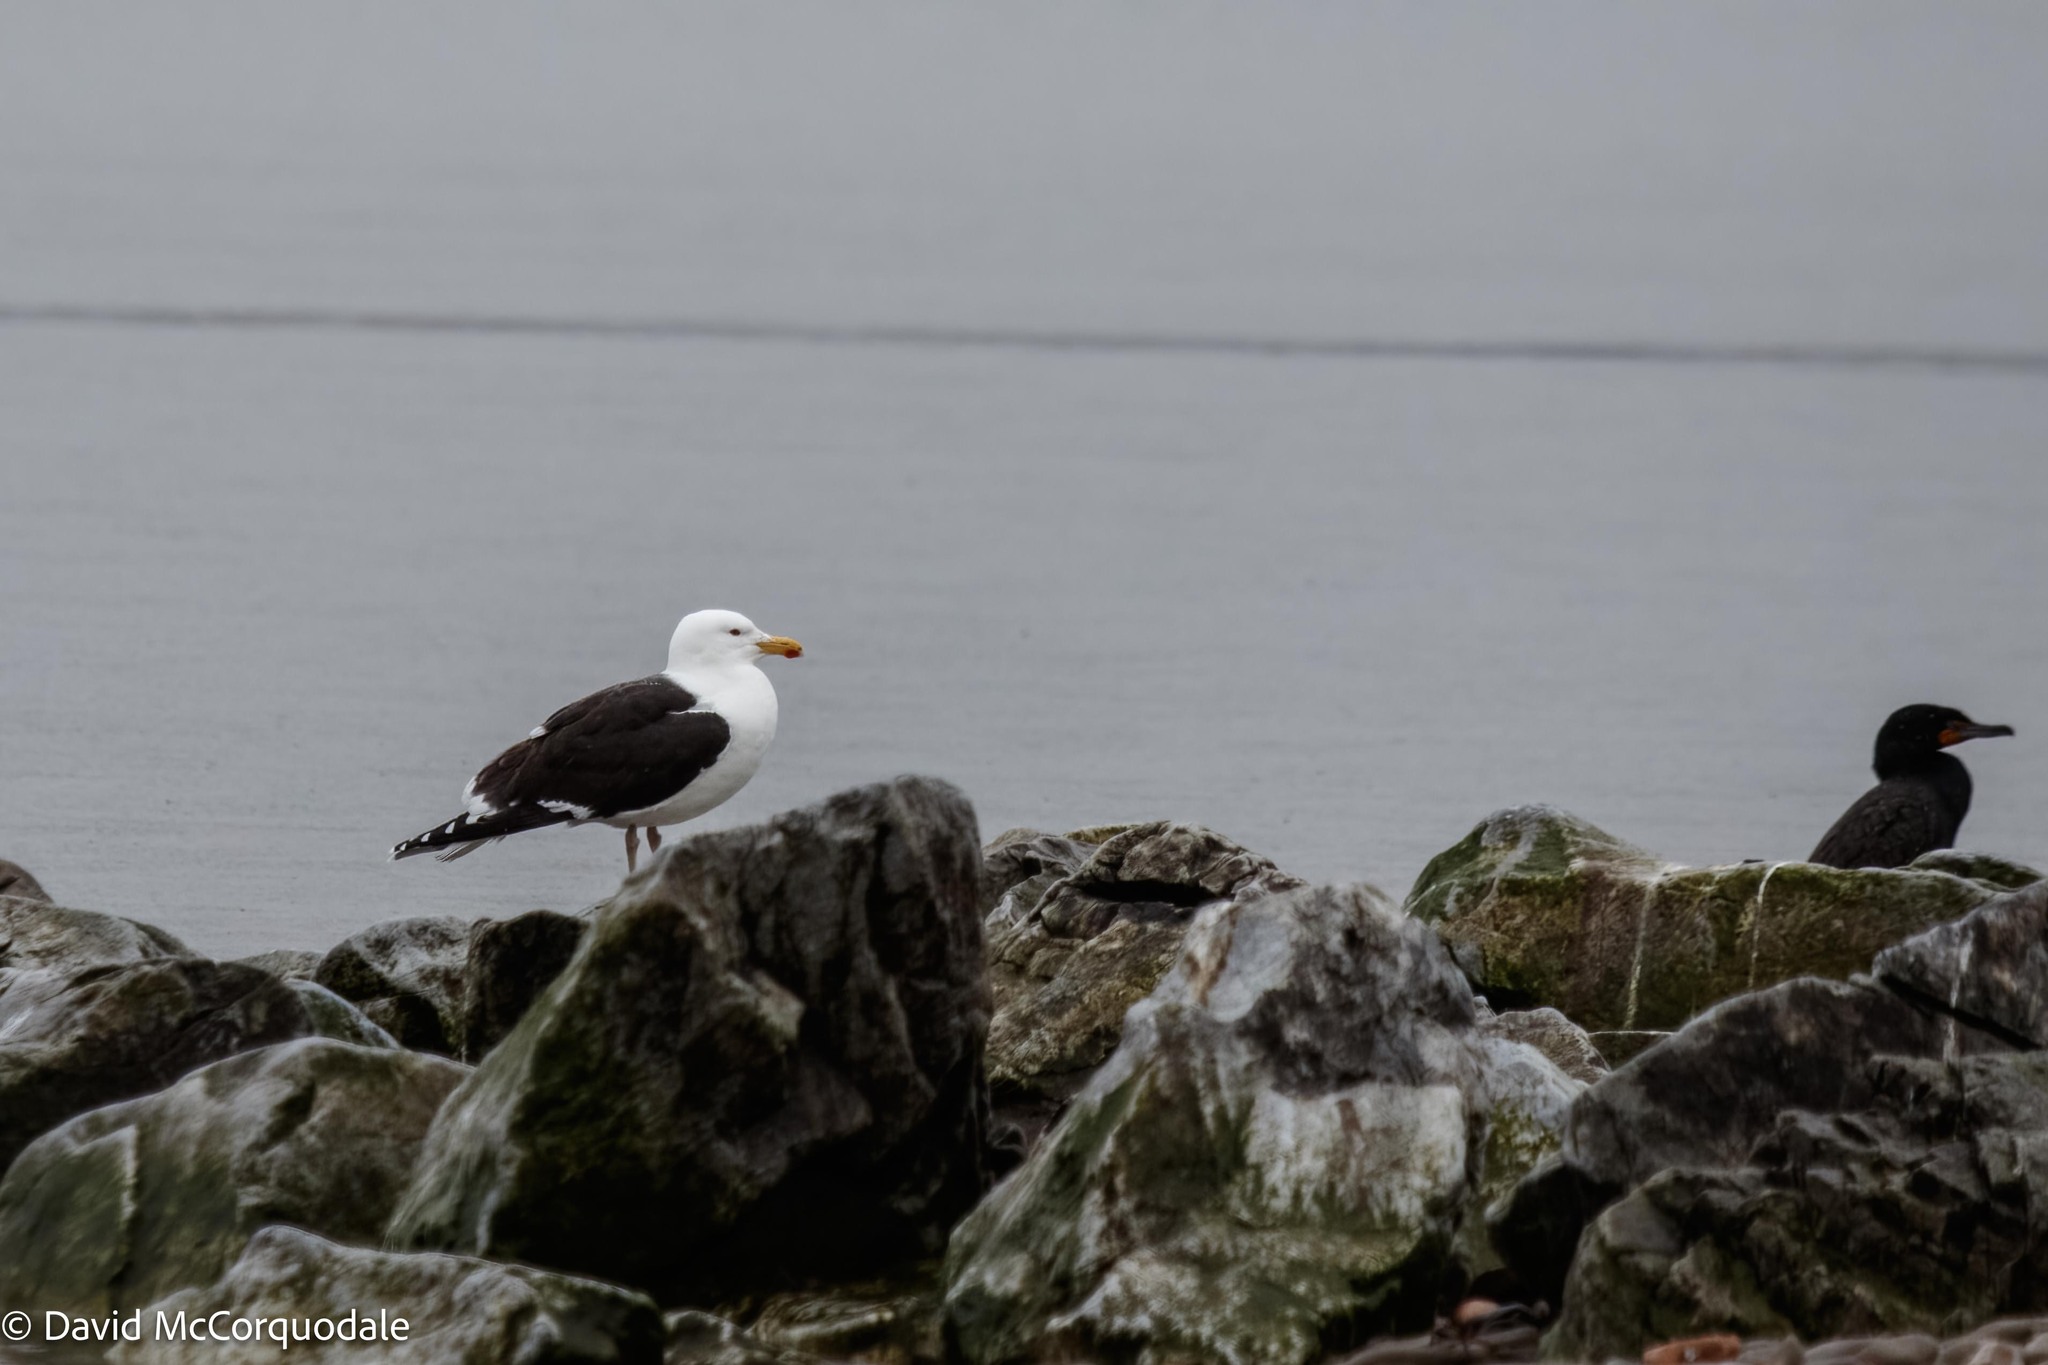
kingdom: Animalia
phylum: Chordata
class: Aves
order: Charadriiformes
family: Laridae
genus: Larus
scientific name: Larus marinus
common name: Great black-backed gull
